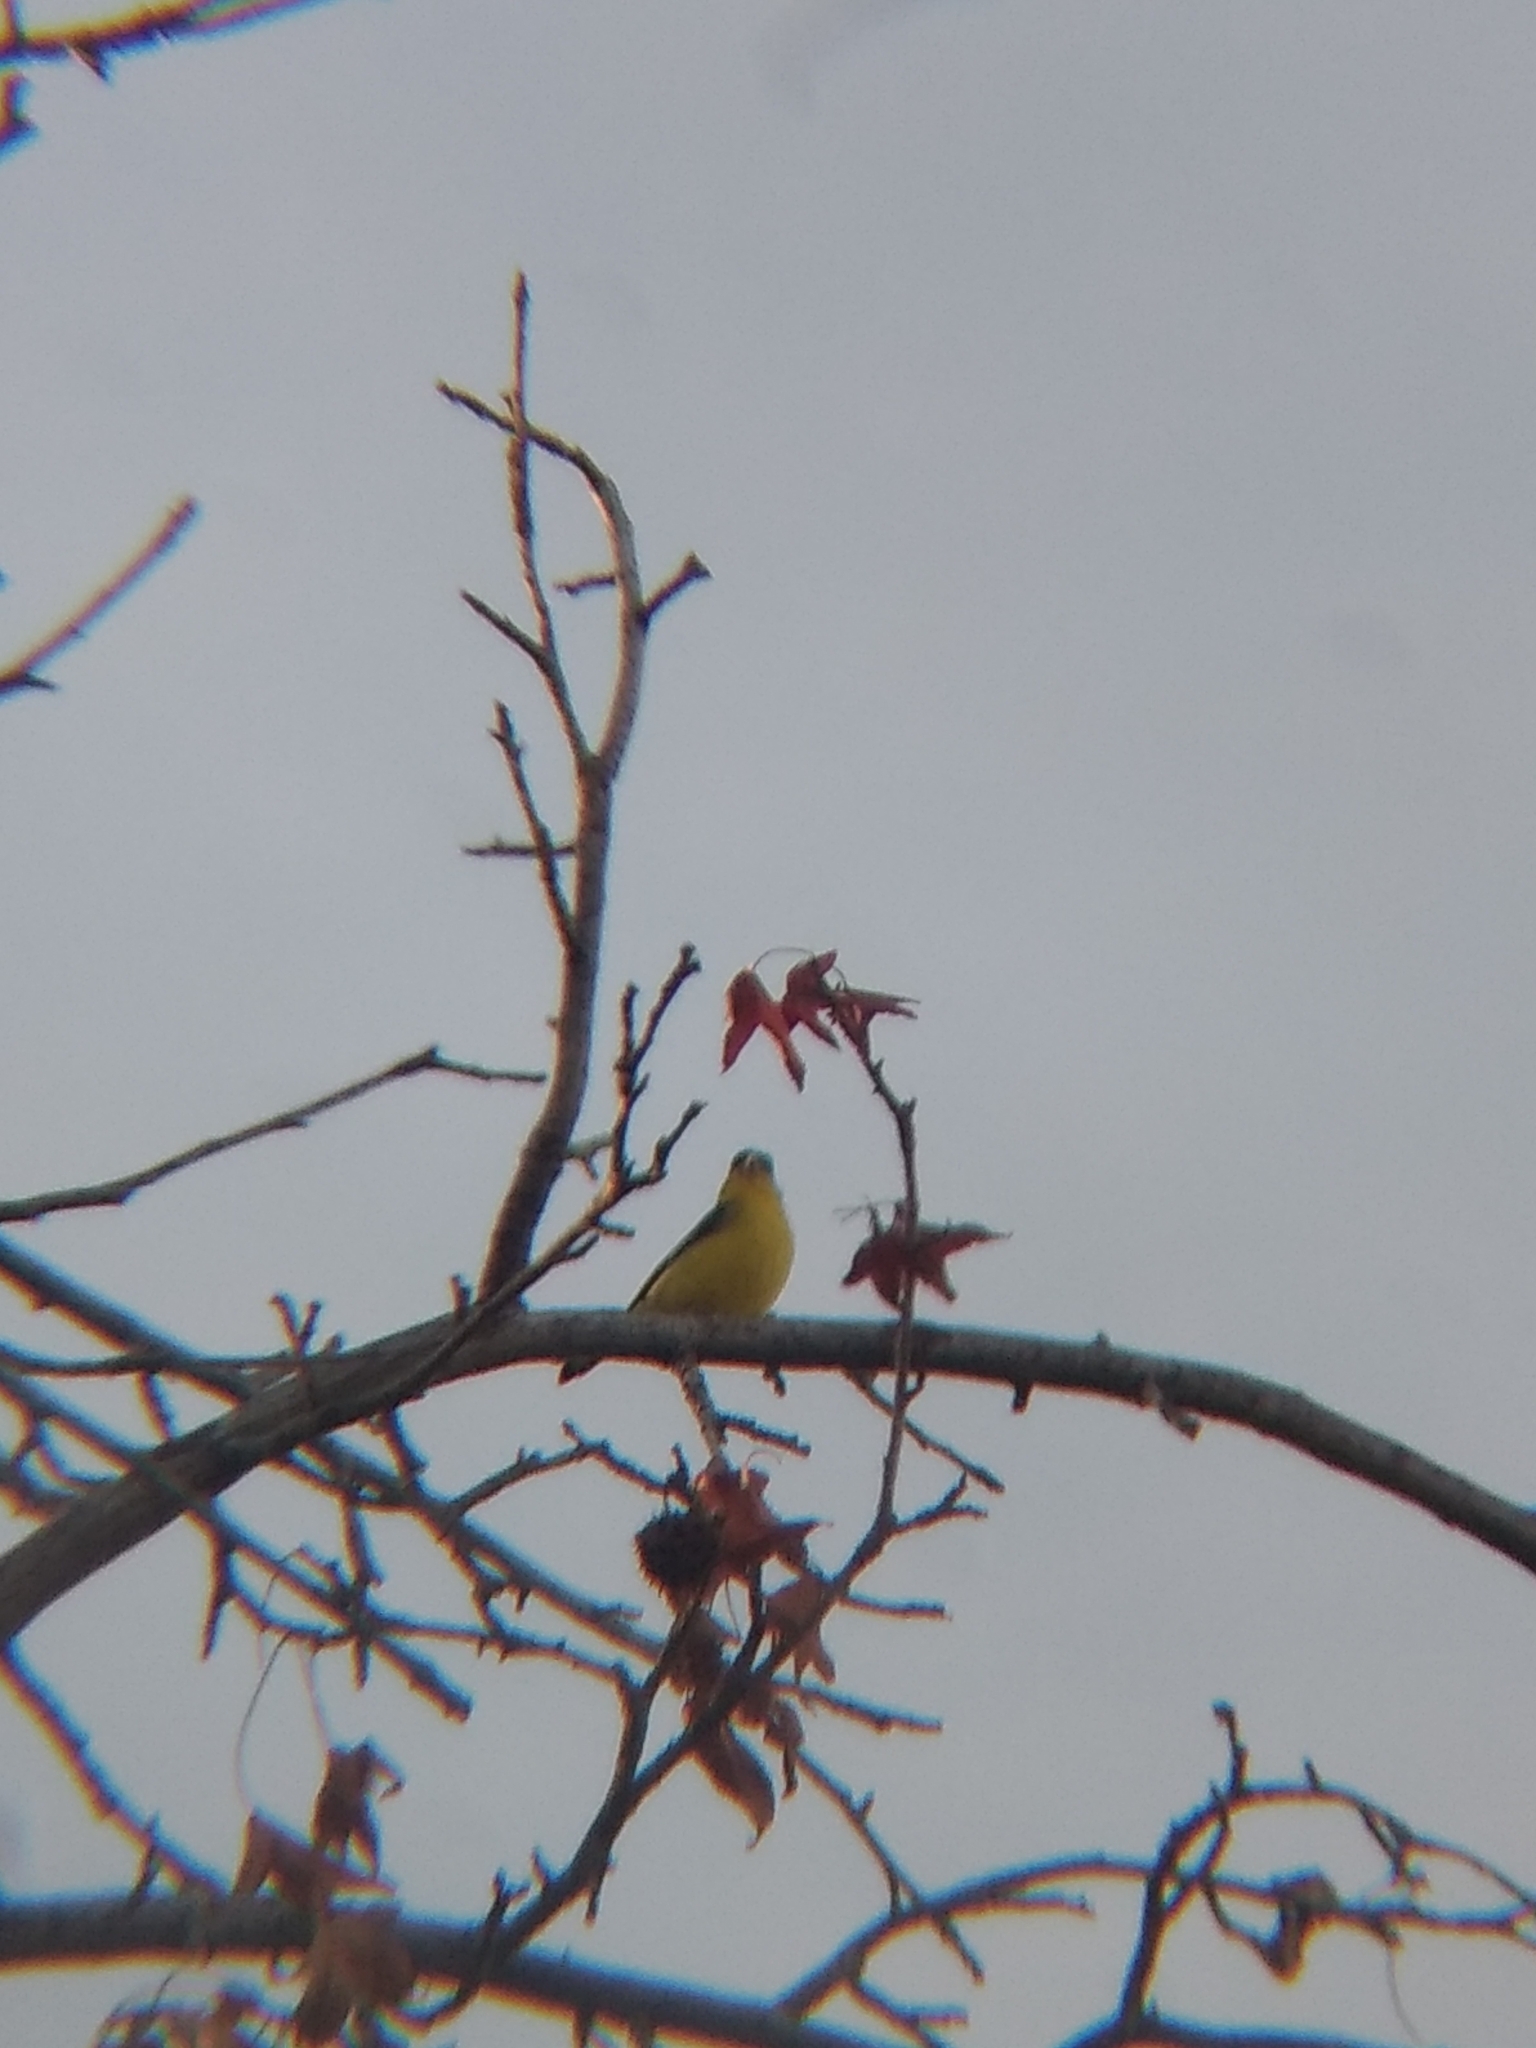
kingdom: Animalia
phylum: Chordata
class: Aves
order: Passeriformes
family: Fringillidae
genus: Spinus
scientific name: Spinus psaltria
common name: Lesser goldfinch
